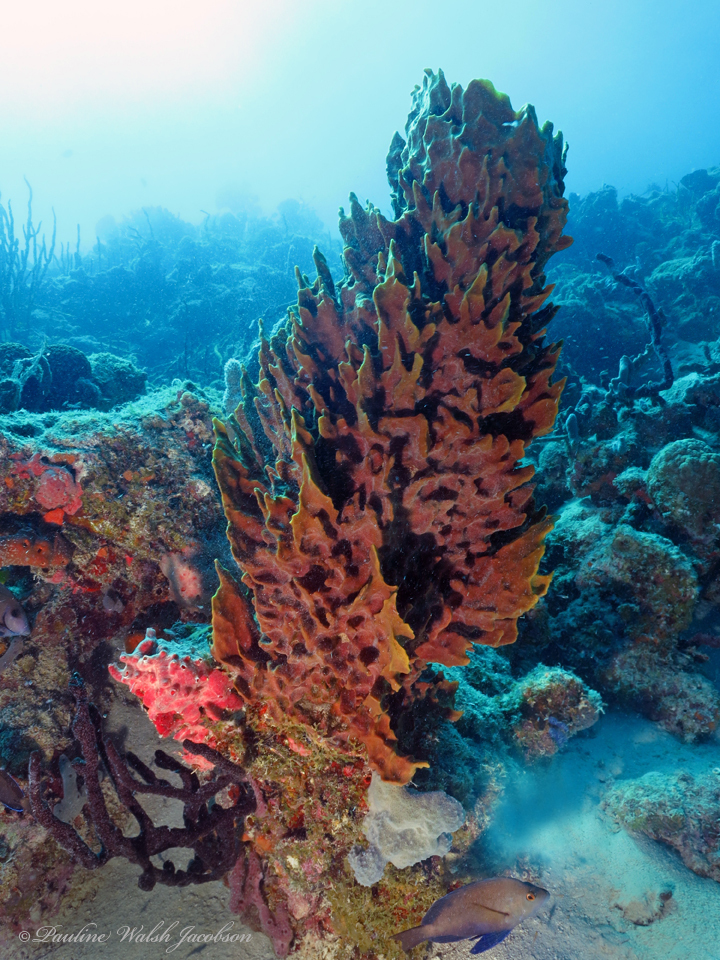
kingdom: Animalia
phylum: Porifera
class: Demospongiae
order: Haplosclerida
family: Petrosiidae
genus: Xestospongia
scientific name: Xestospongia muta
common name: Giant barrel sponge
